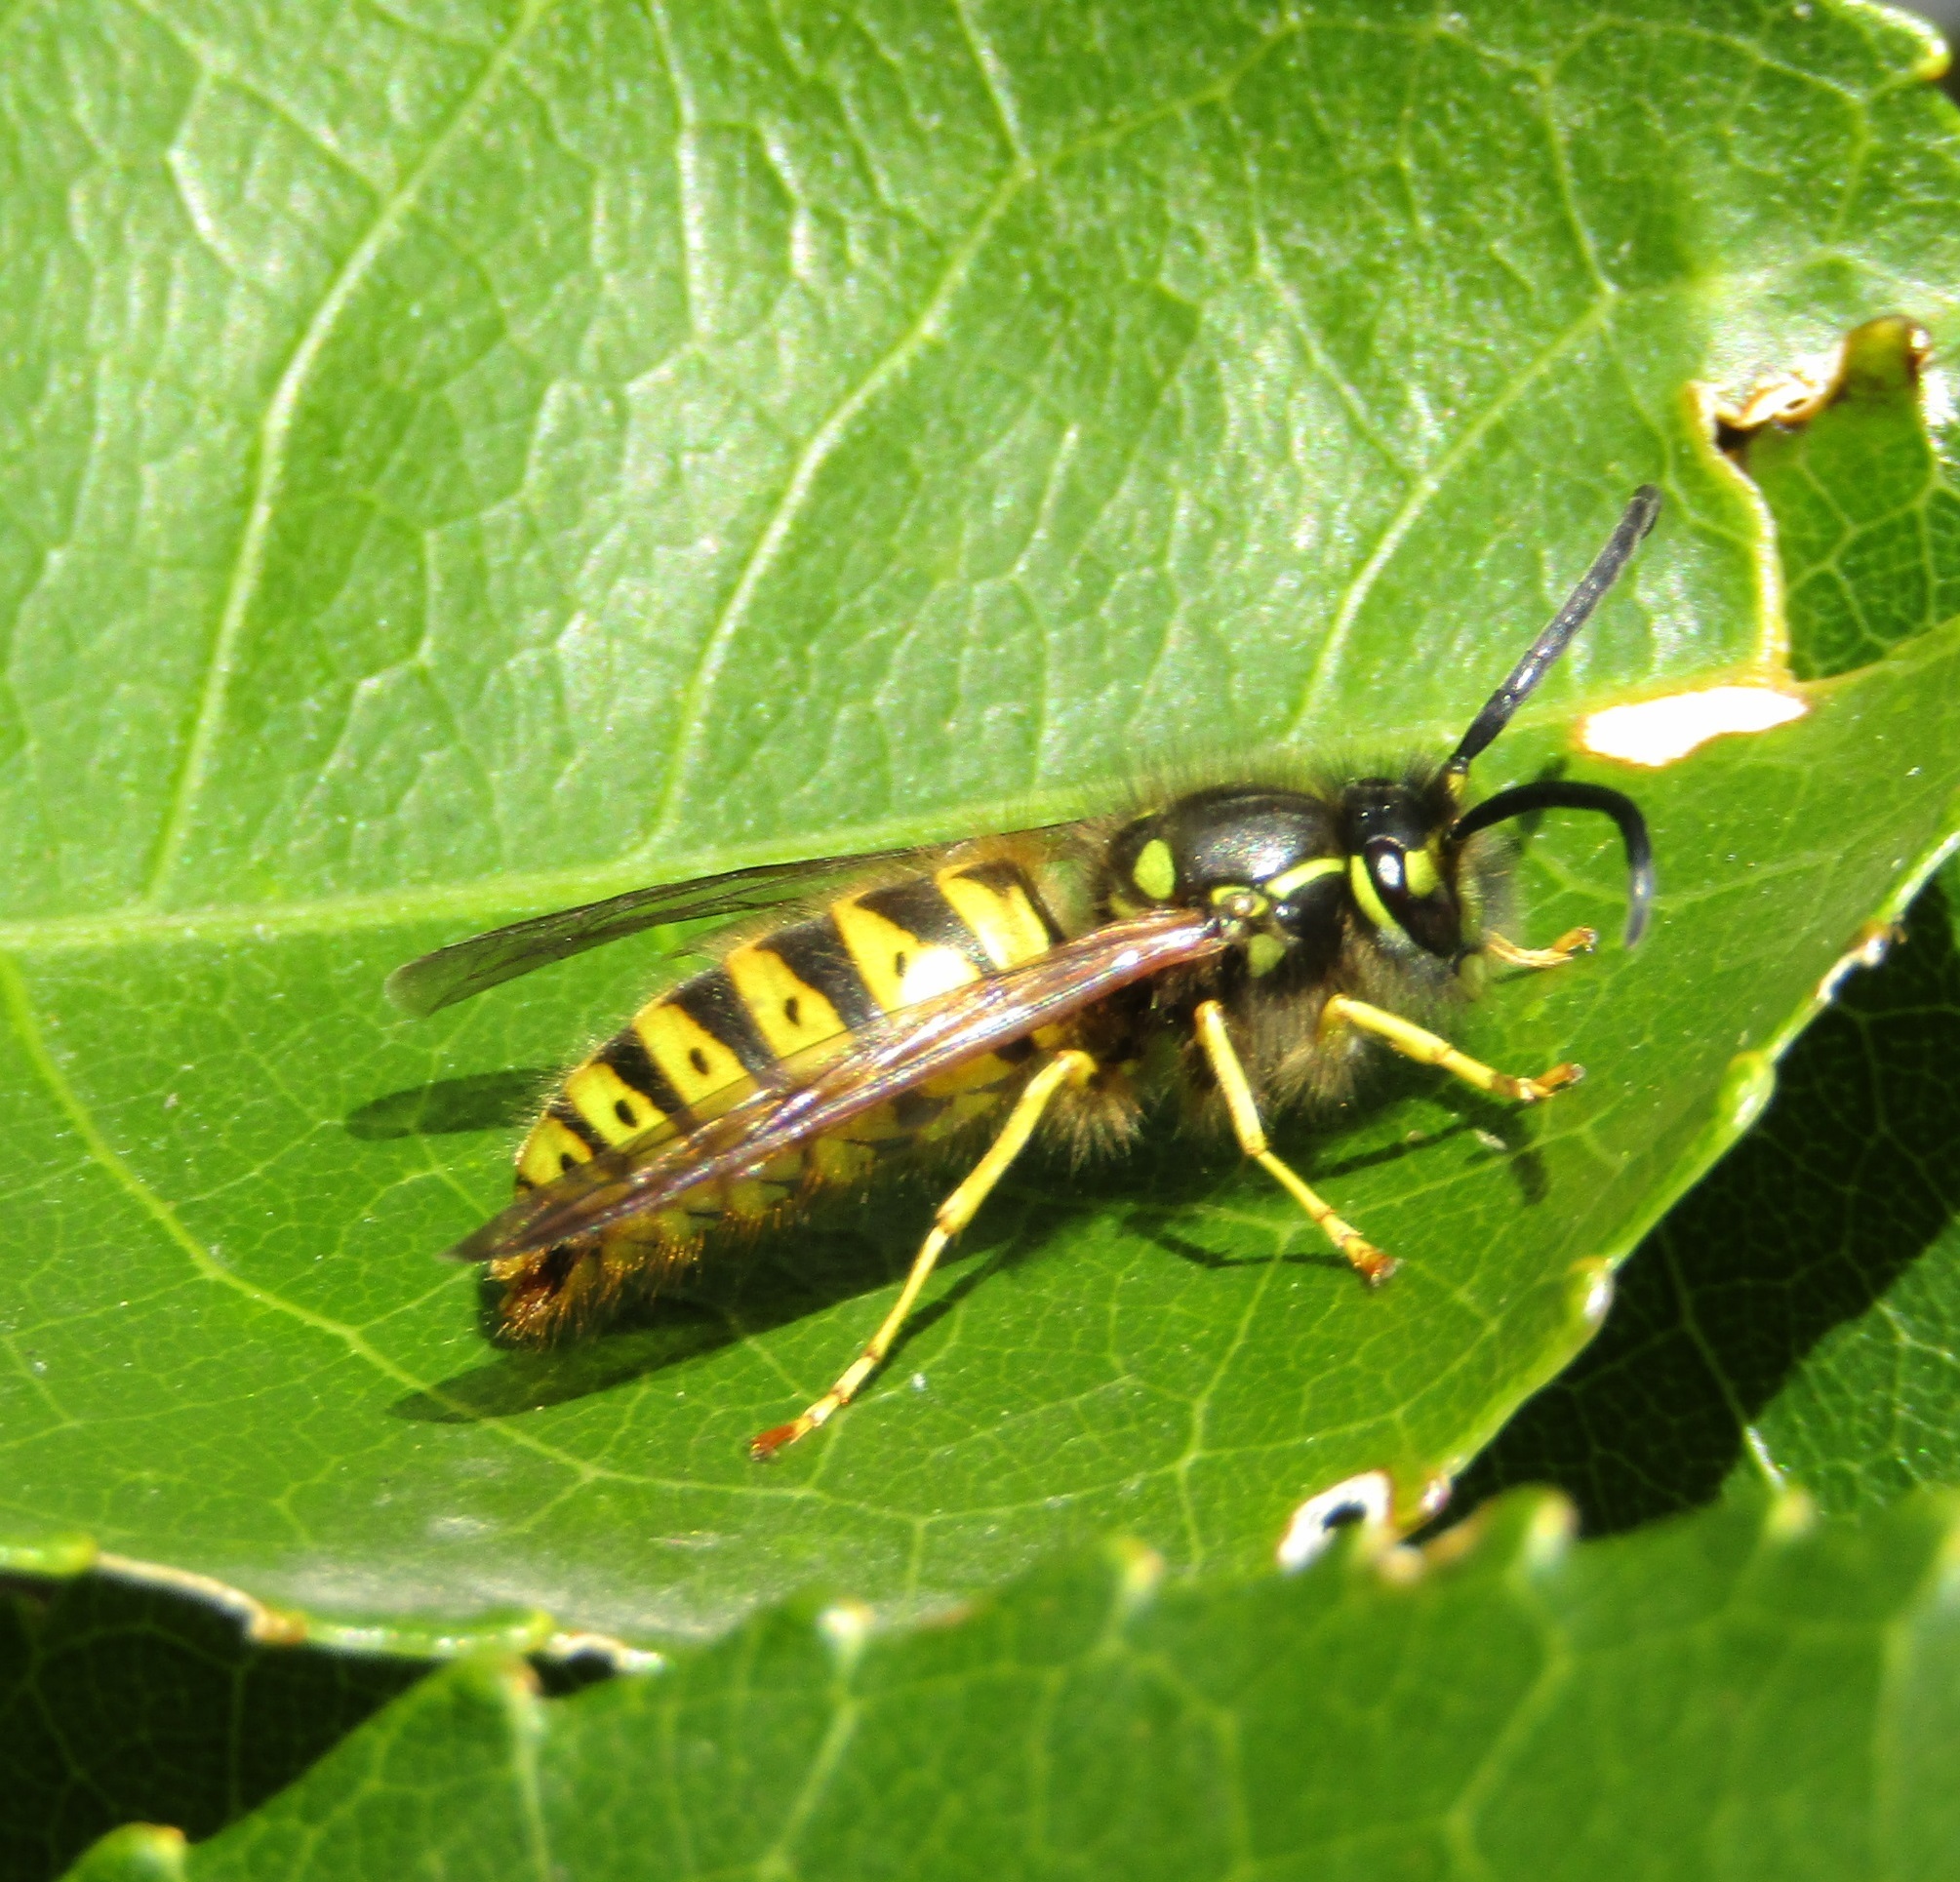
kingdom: Animalia
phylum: Arthropoda
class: Insecta
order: Hymenoptera
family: Vespidae
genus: Vespula
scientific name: Vespula germanica
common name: German wasp
